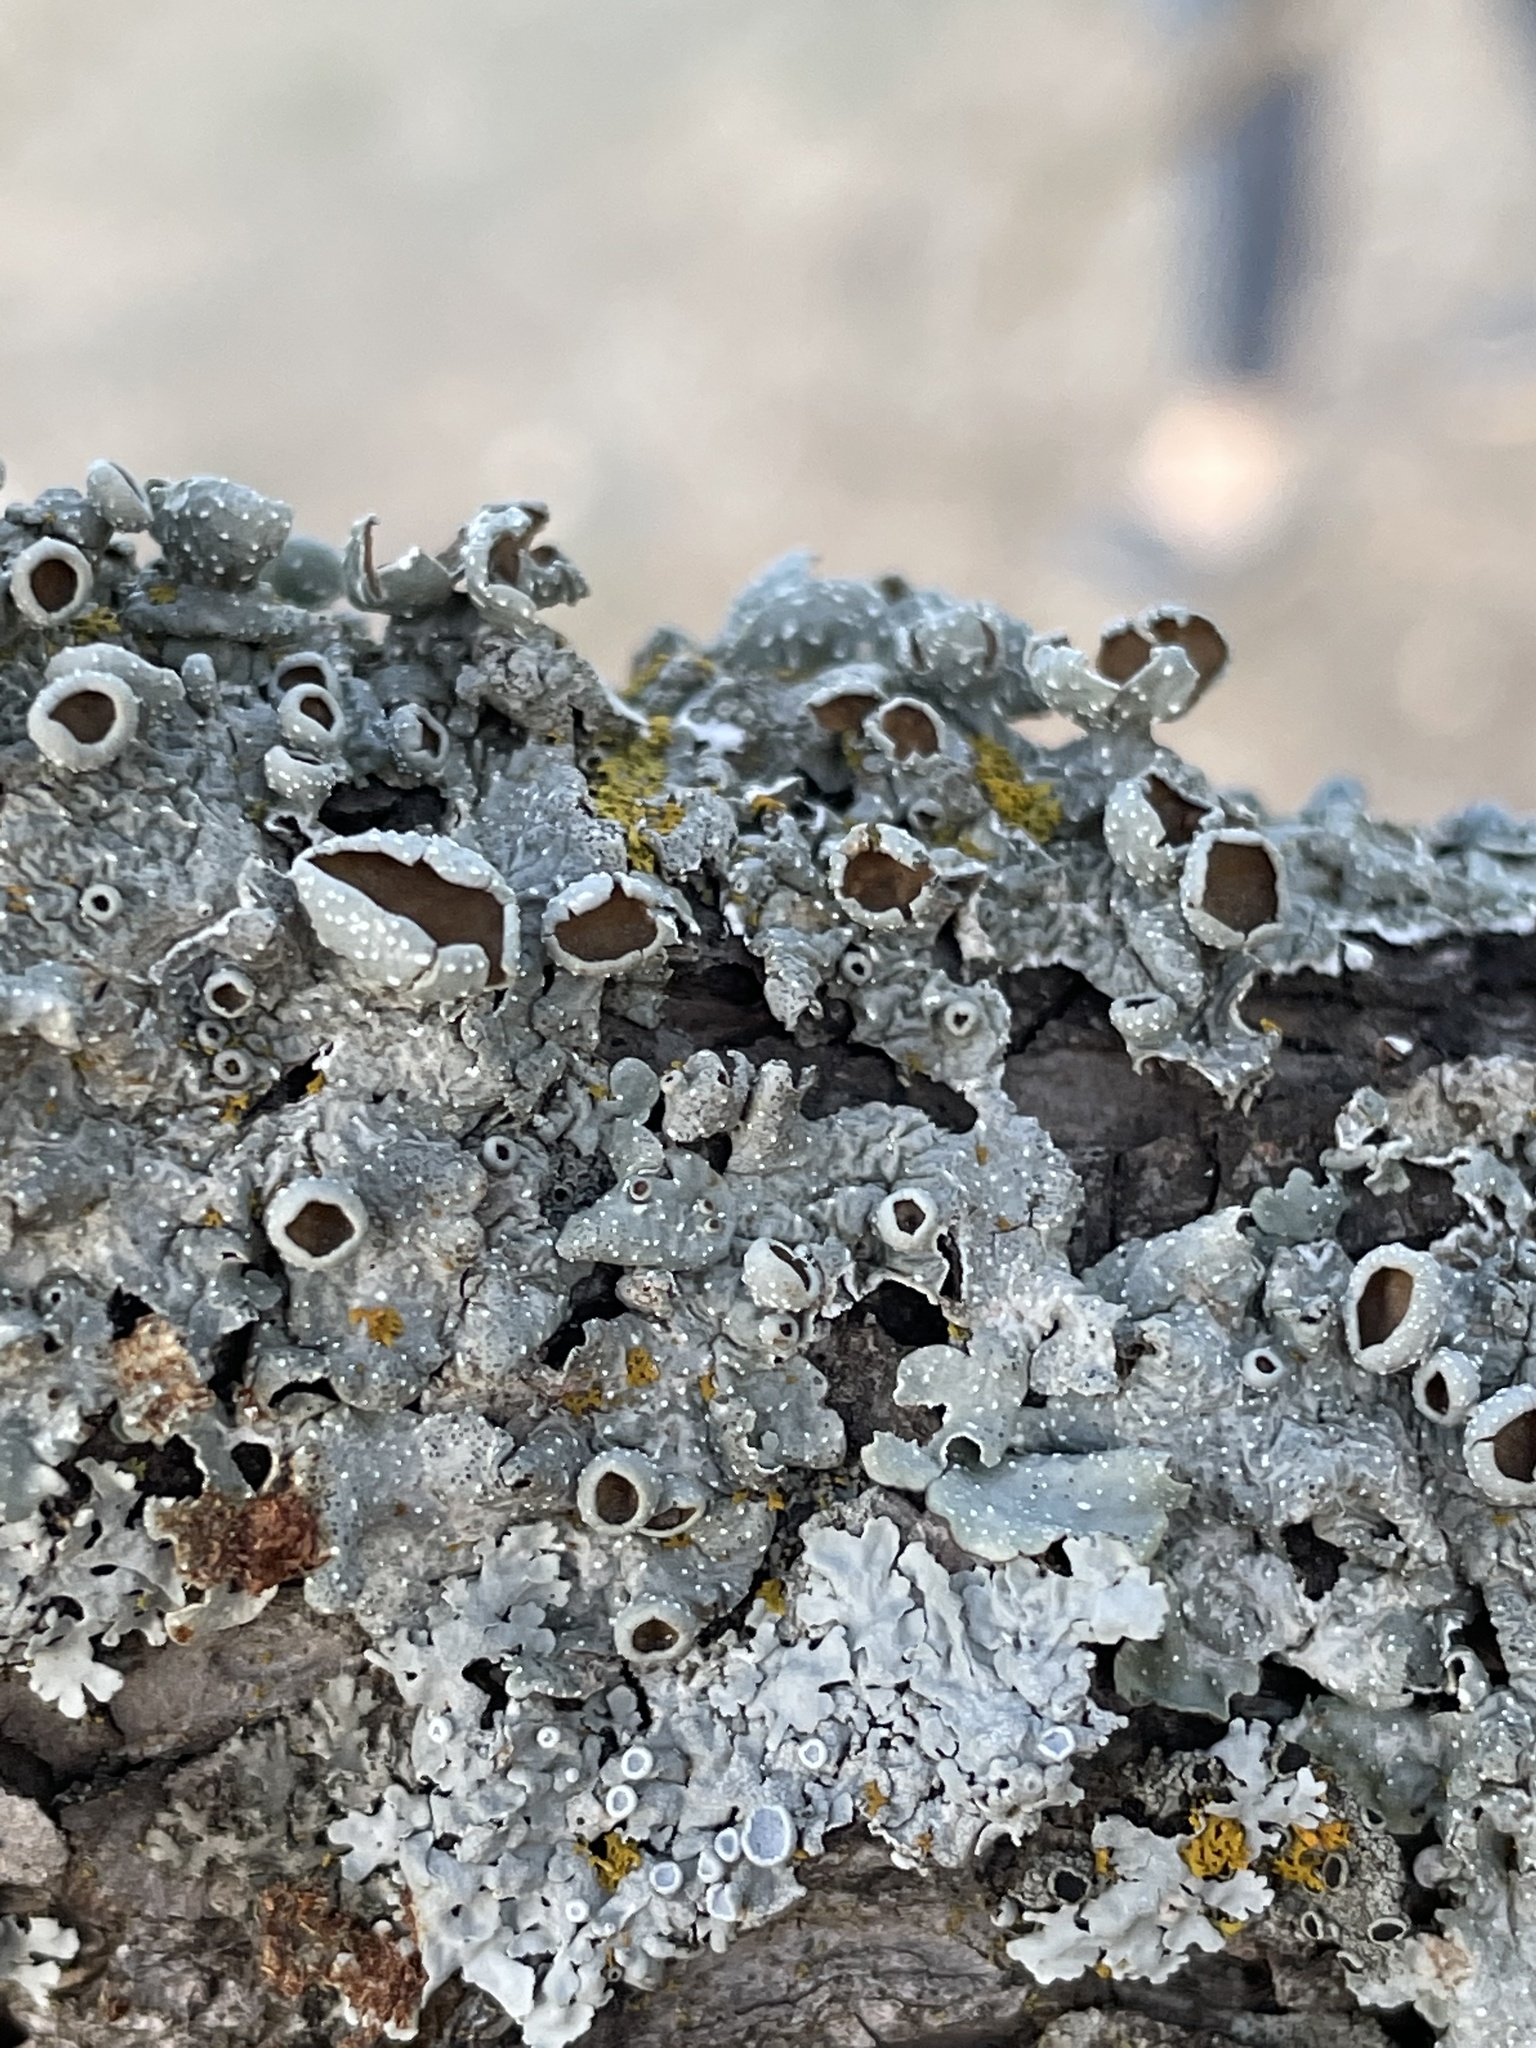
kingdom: Fungi
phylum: Ascomycota
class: Lecanoromycetes
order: Lecanorales
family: Parmeliaceae
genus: Punctelia
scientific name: Punctelia bolliana
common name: Eastern speckled shield lichen
